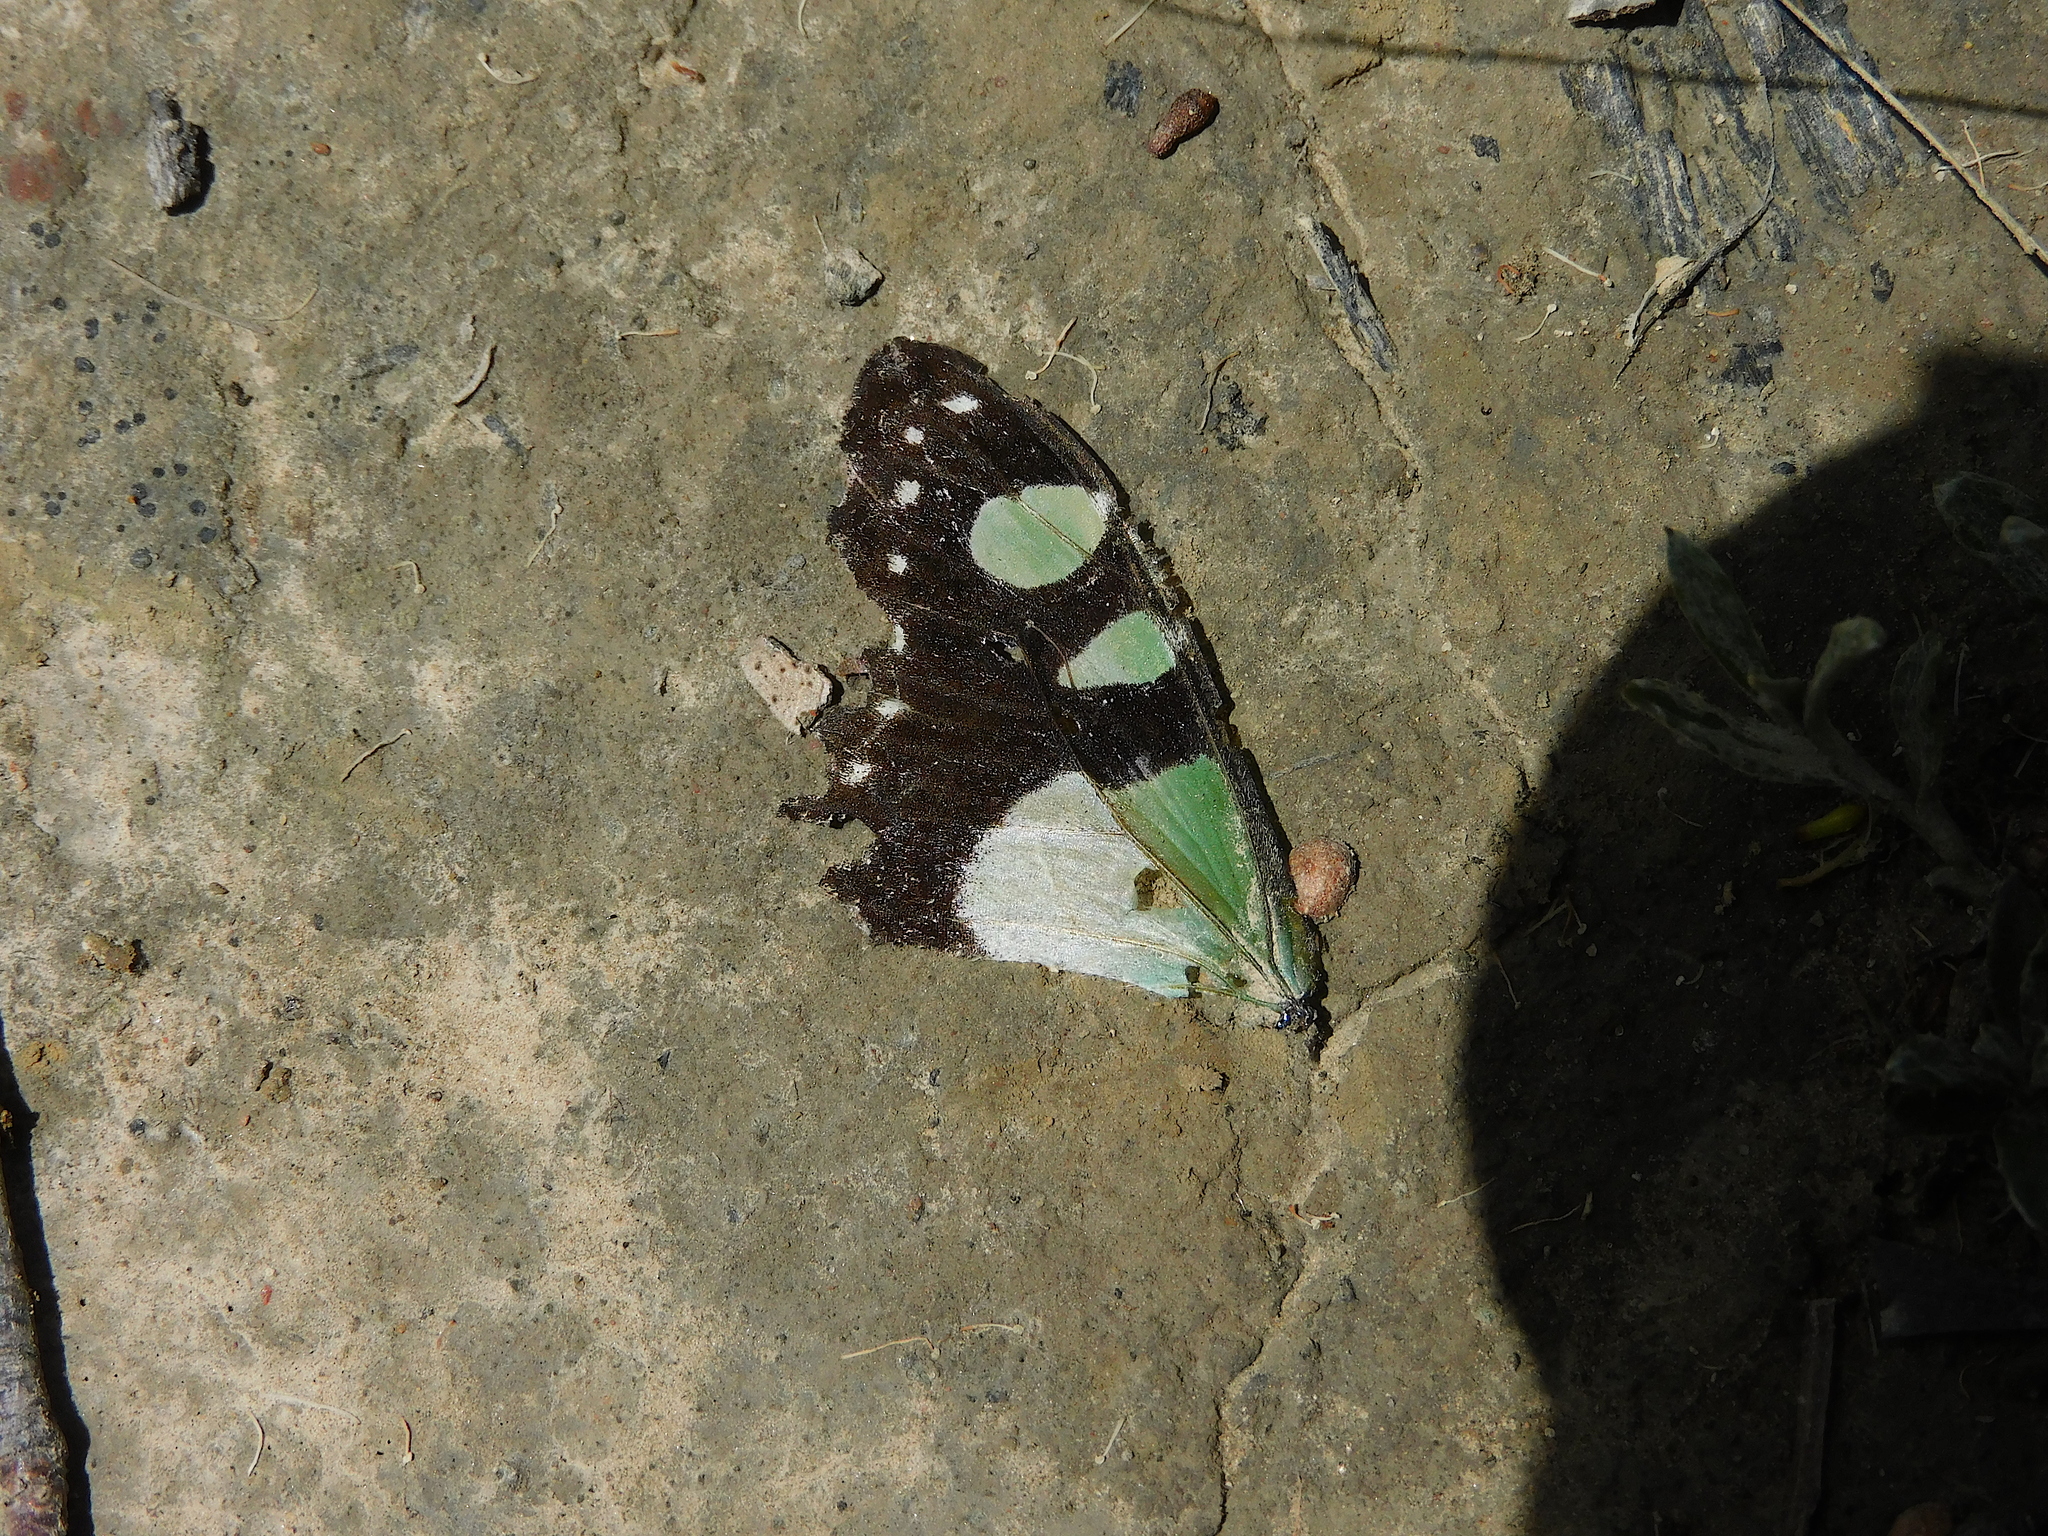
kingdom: Animalia
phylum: Arthropoda
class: Insecta
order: Lepidoptera
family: Papilionidae
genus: Graphium
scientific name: Graphium macleayanus
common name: Macleay's swallowtail
